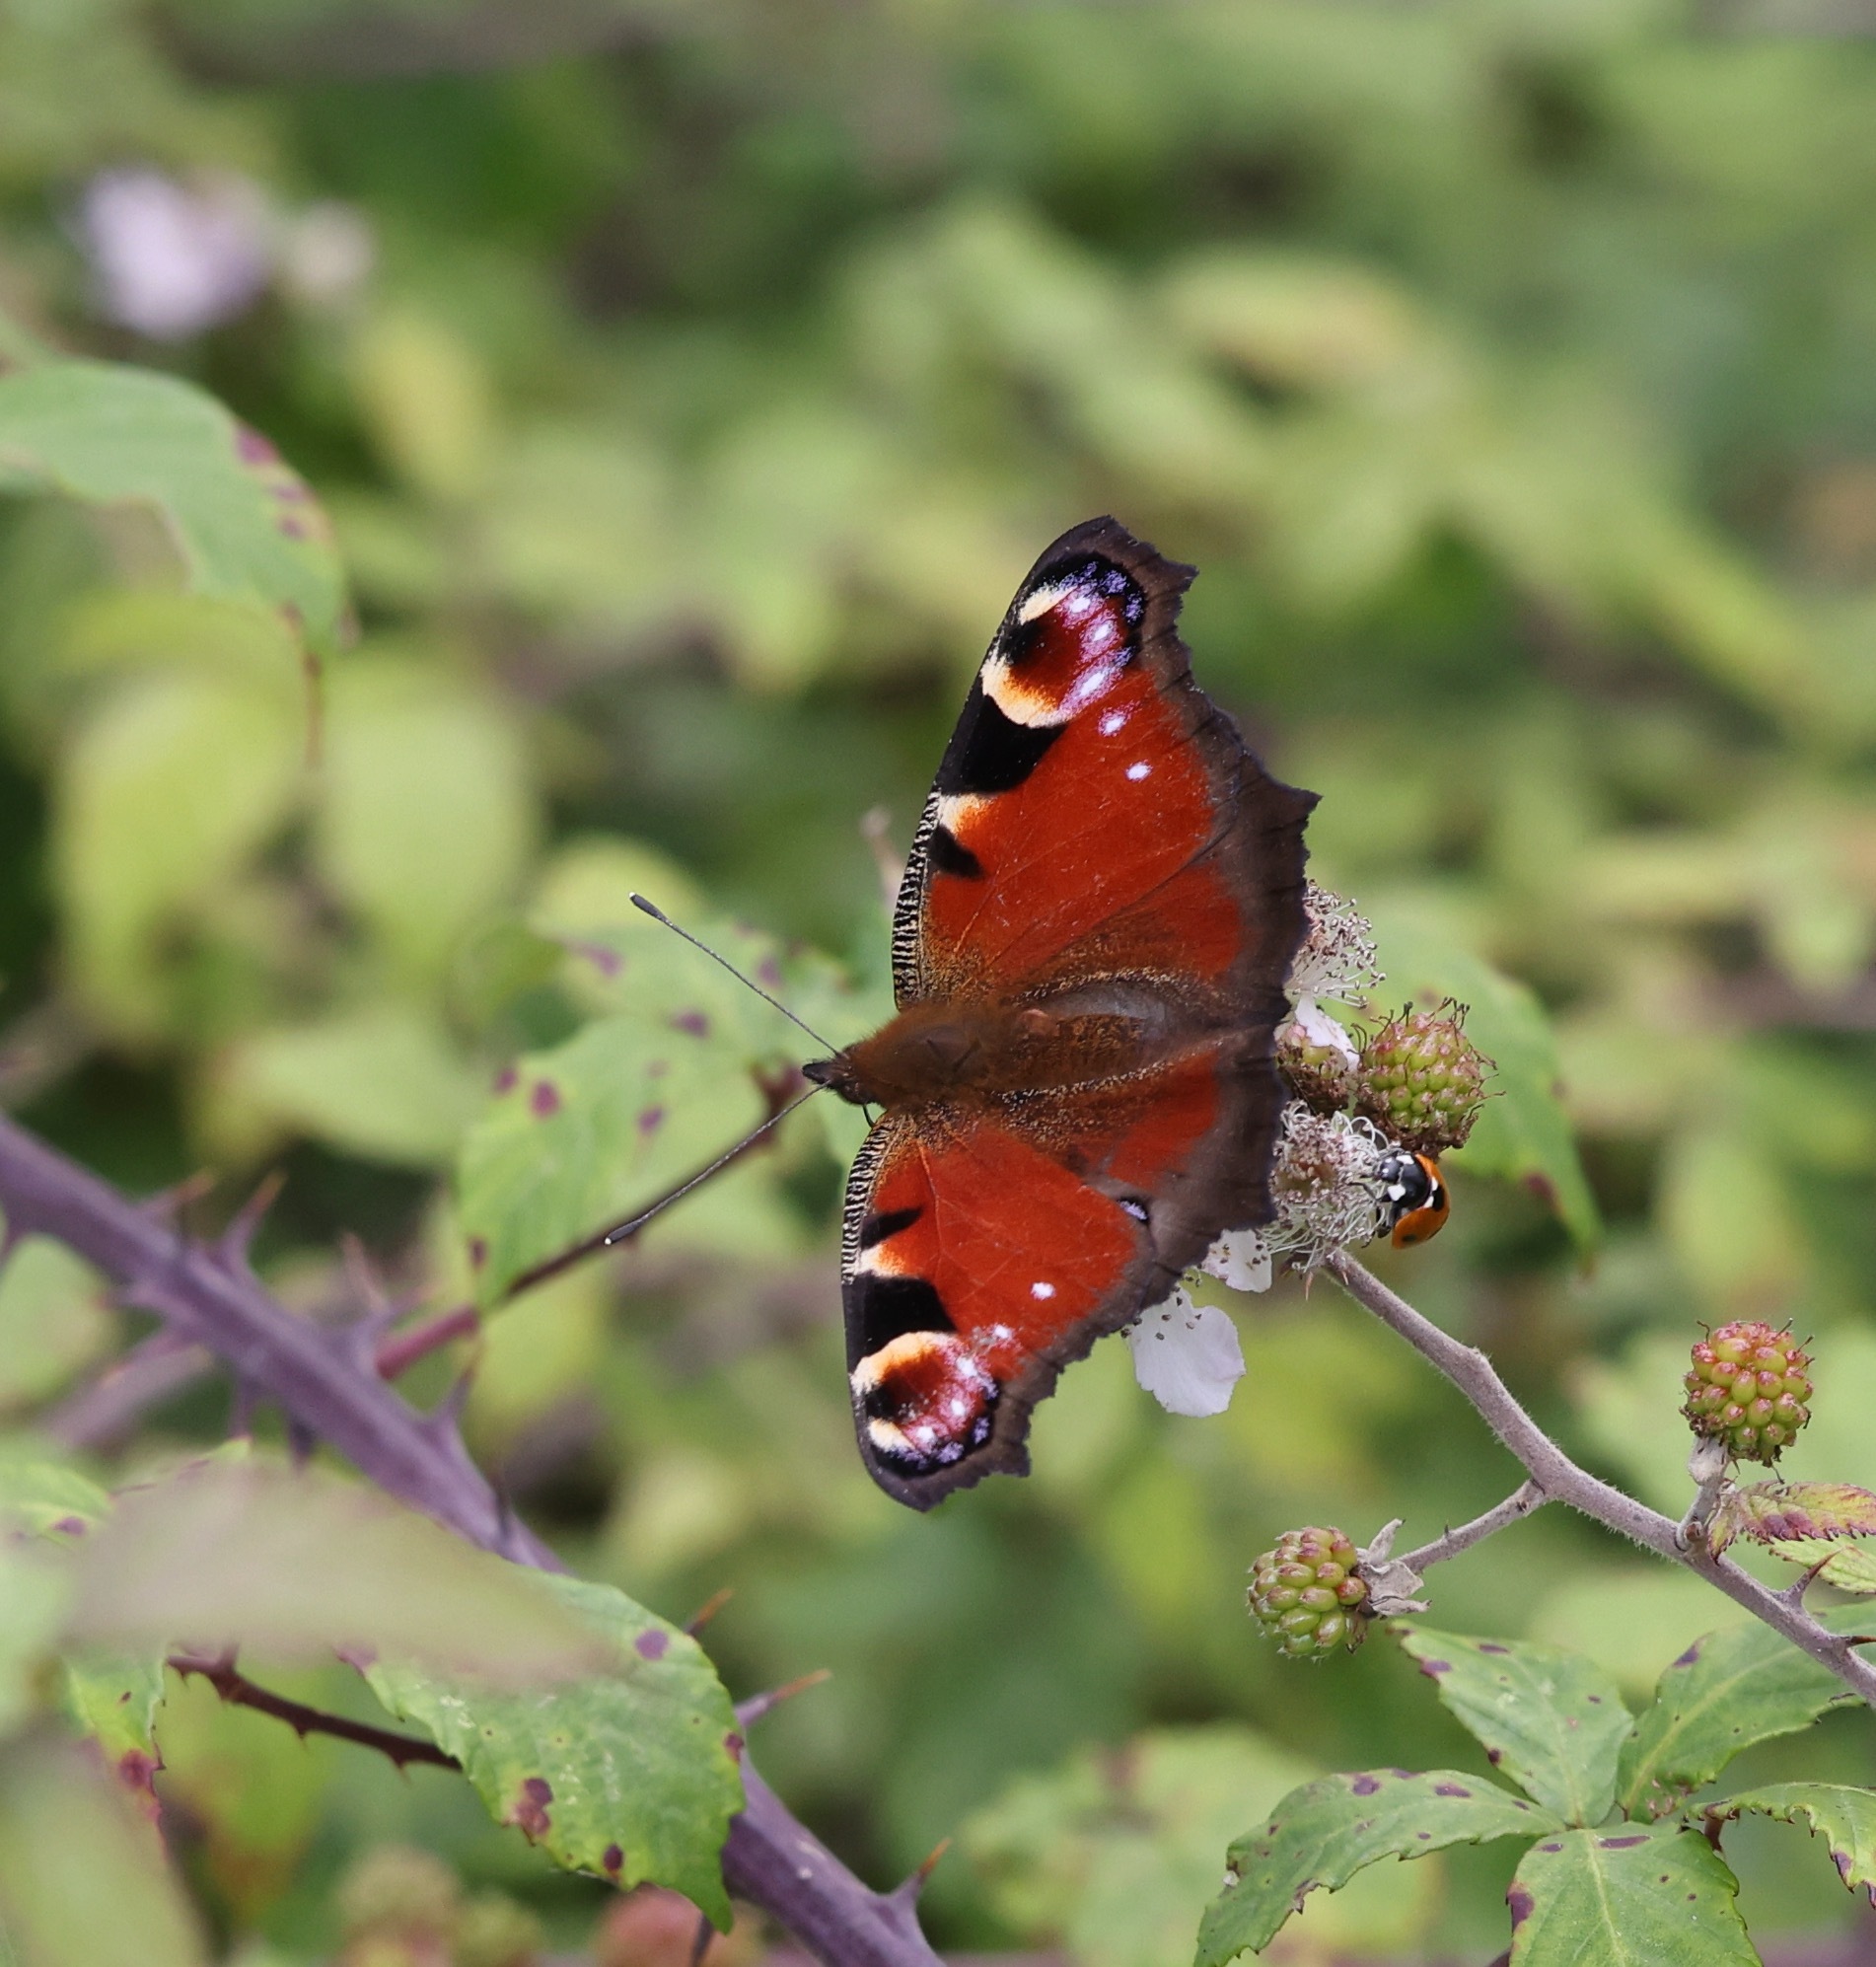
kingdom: Animalia
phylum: Arthropoda
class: Insecta
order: Lepidoptera
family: Nymphalidae
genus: Aglais
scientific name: Aglais io
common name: Peacock
